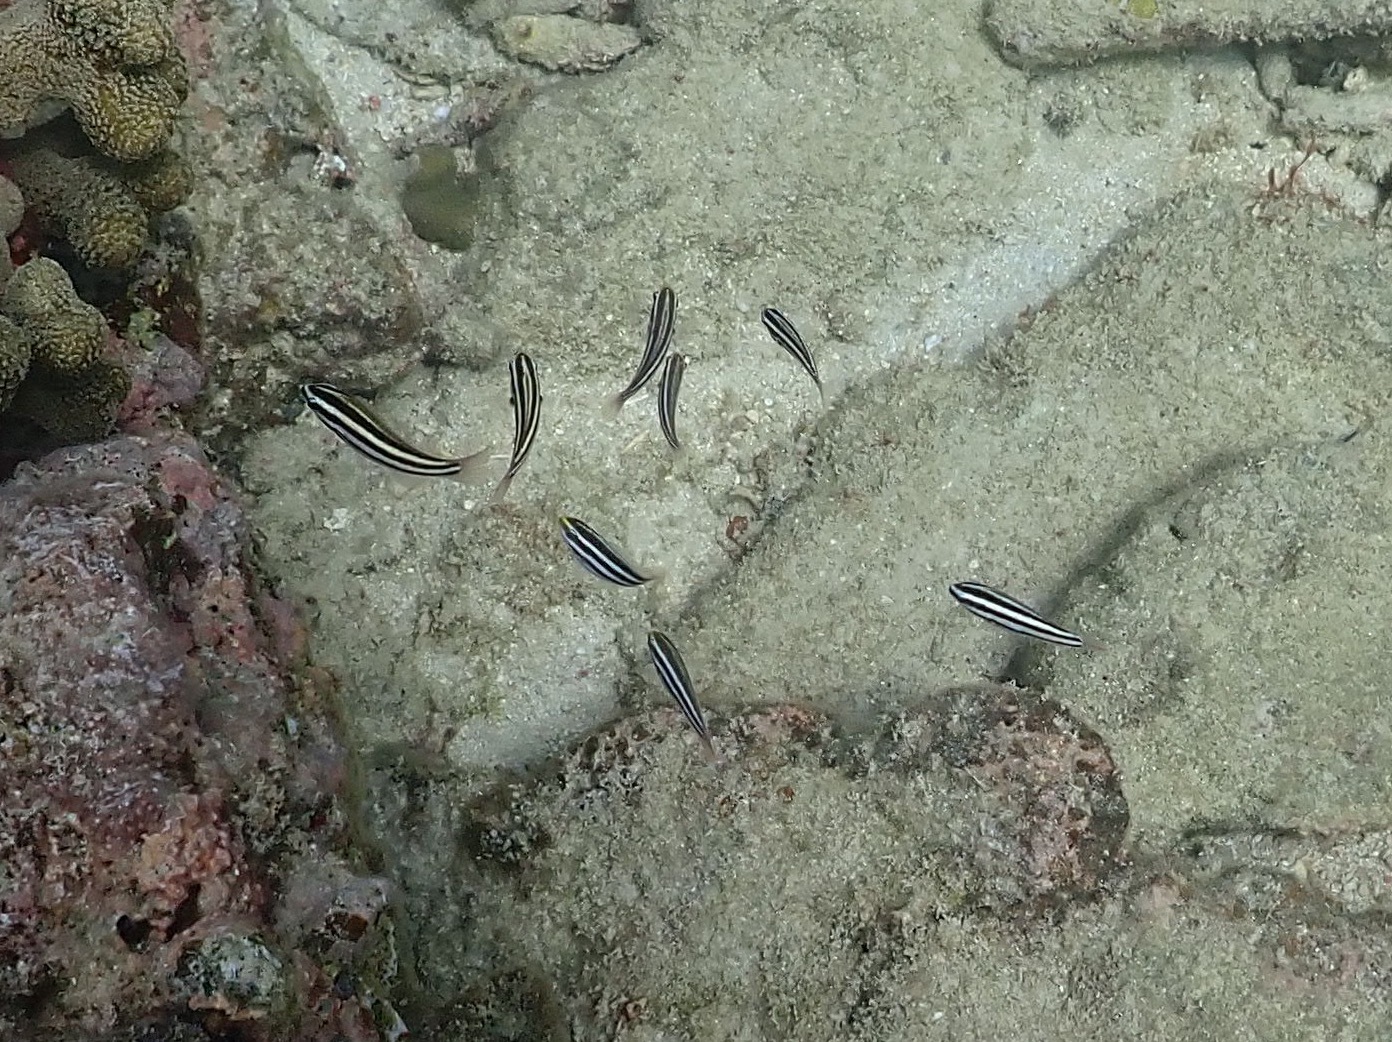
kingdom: Animalia
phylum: Chordata
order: Perciformes
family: Scaridae
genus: Scarus
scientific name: Scarus iseri
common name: Striped parrotfish
